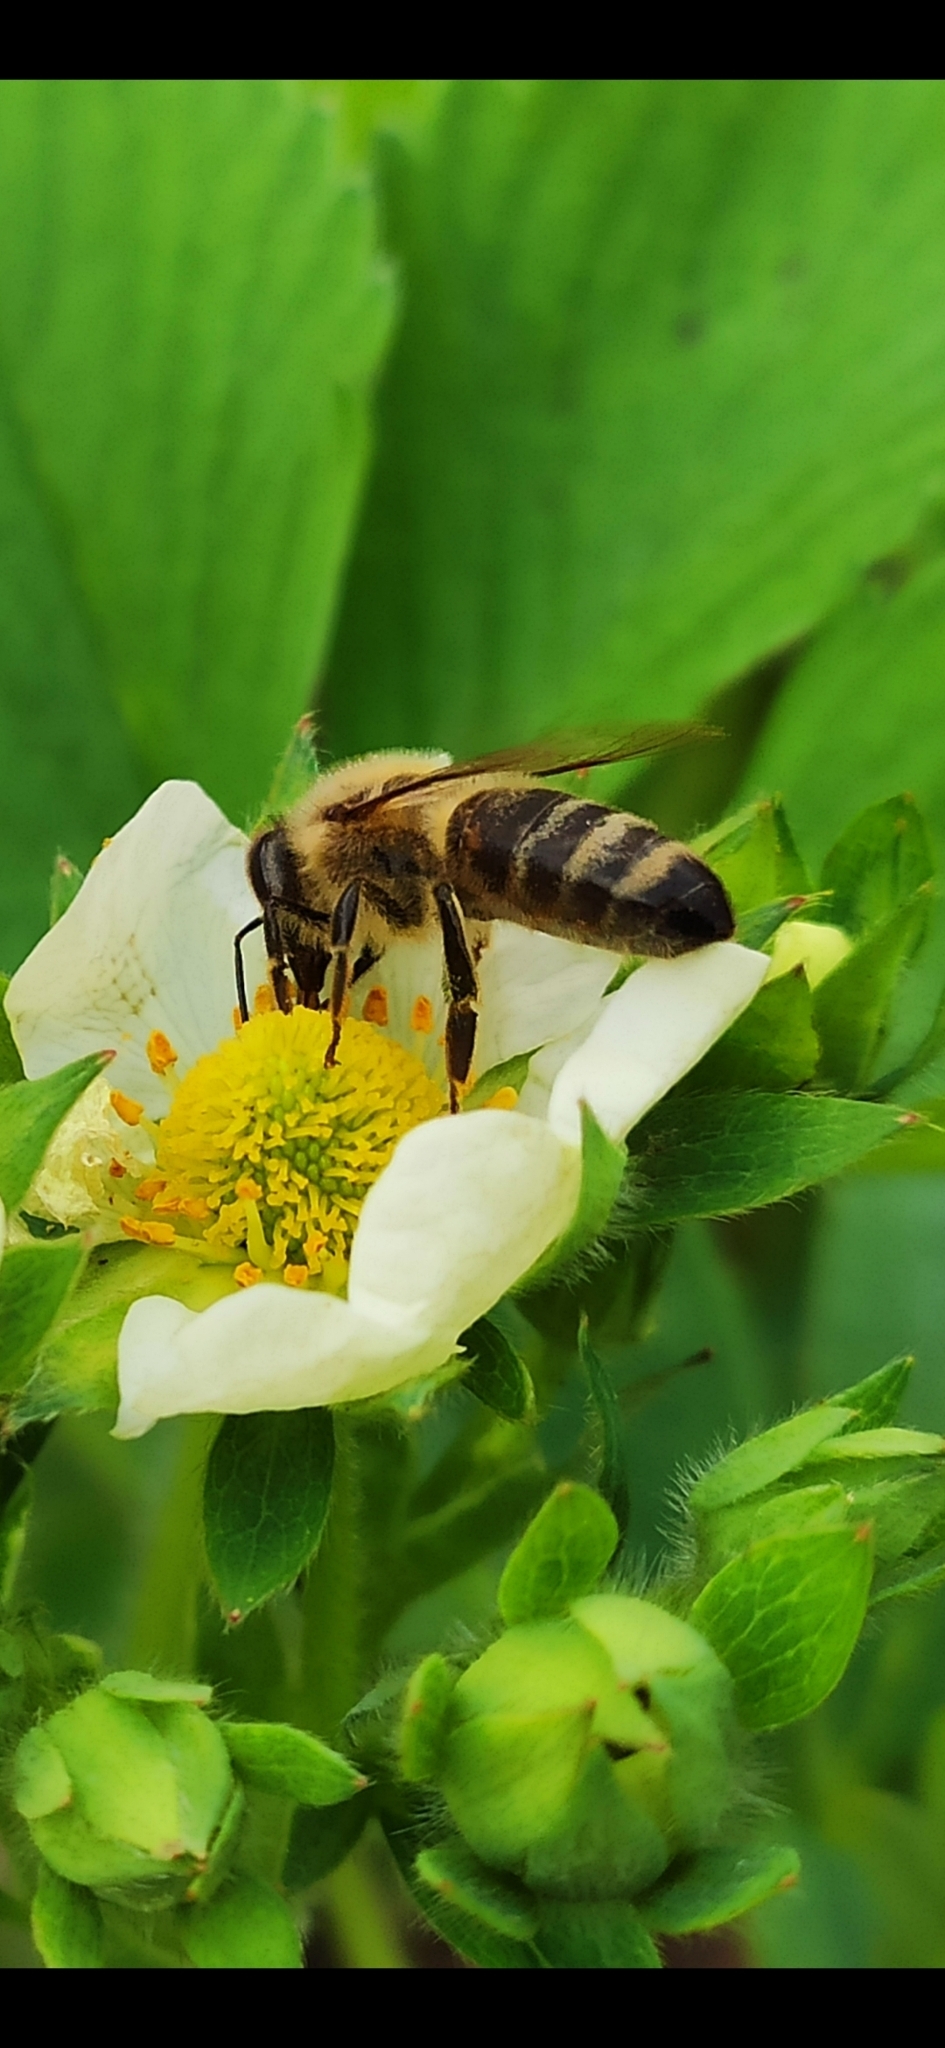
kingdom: Animalia
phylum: Arthropoda
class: Insecta
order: Hymenoptera
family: Apidae
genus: Apis
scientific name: Apis mellifera
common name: Honey bee
